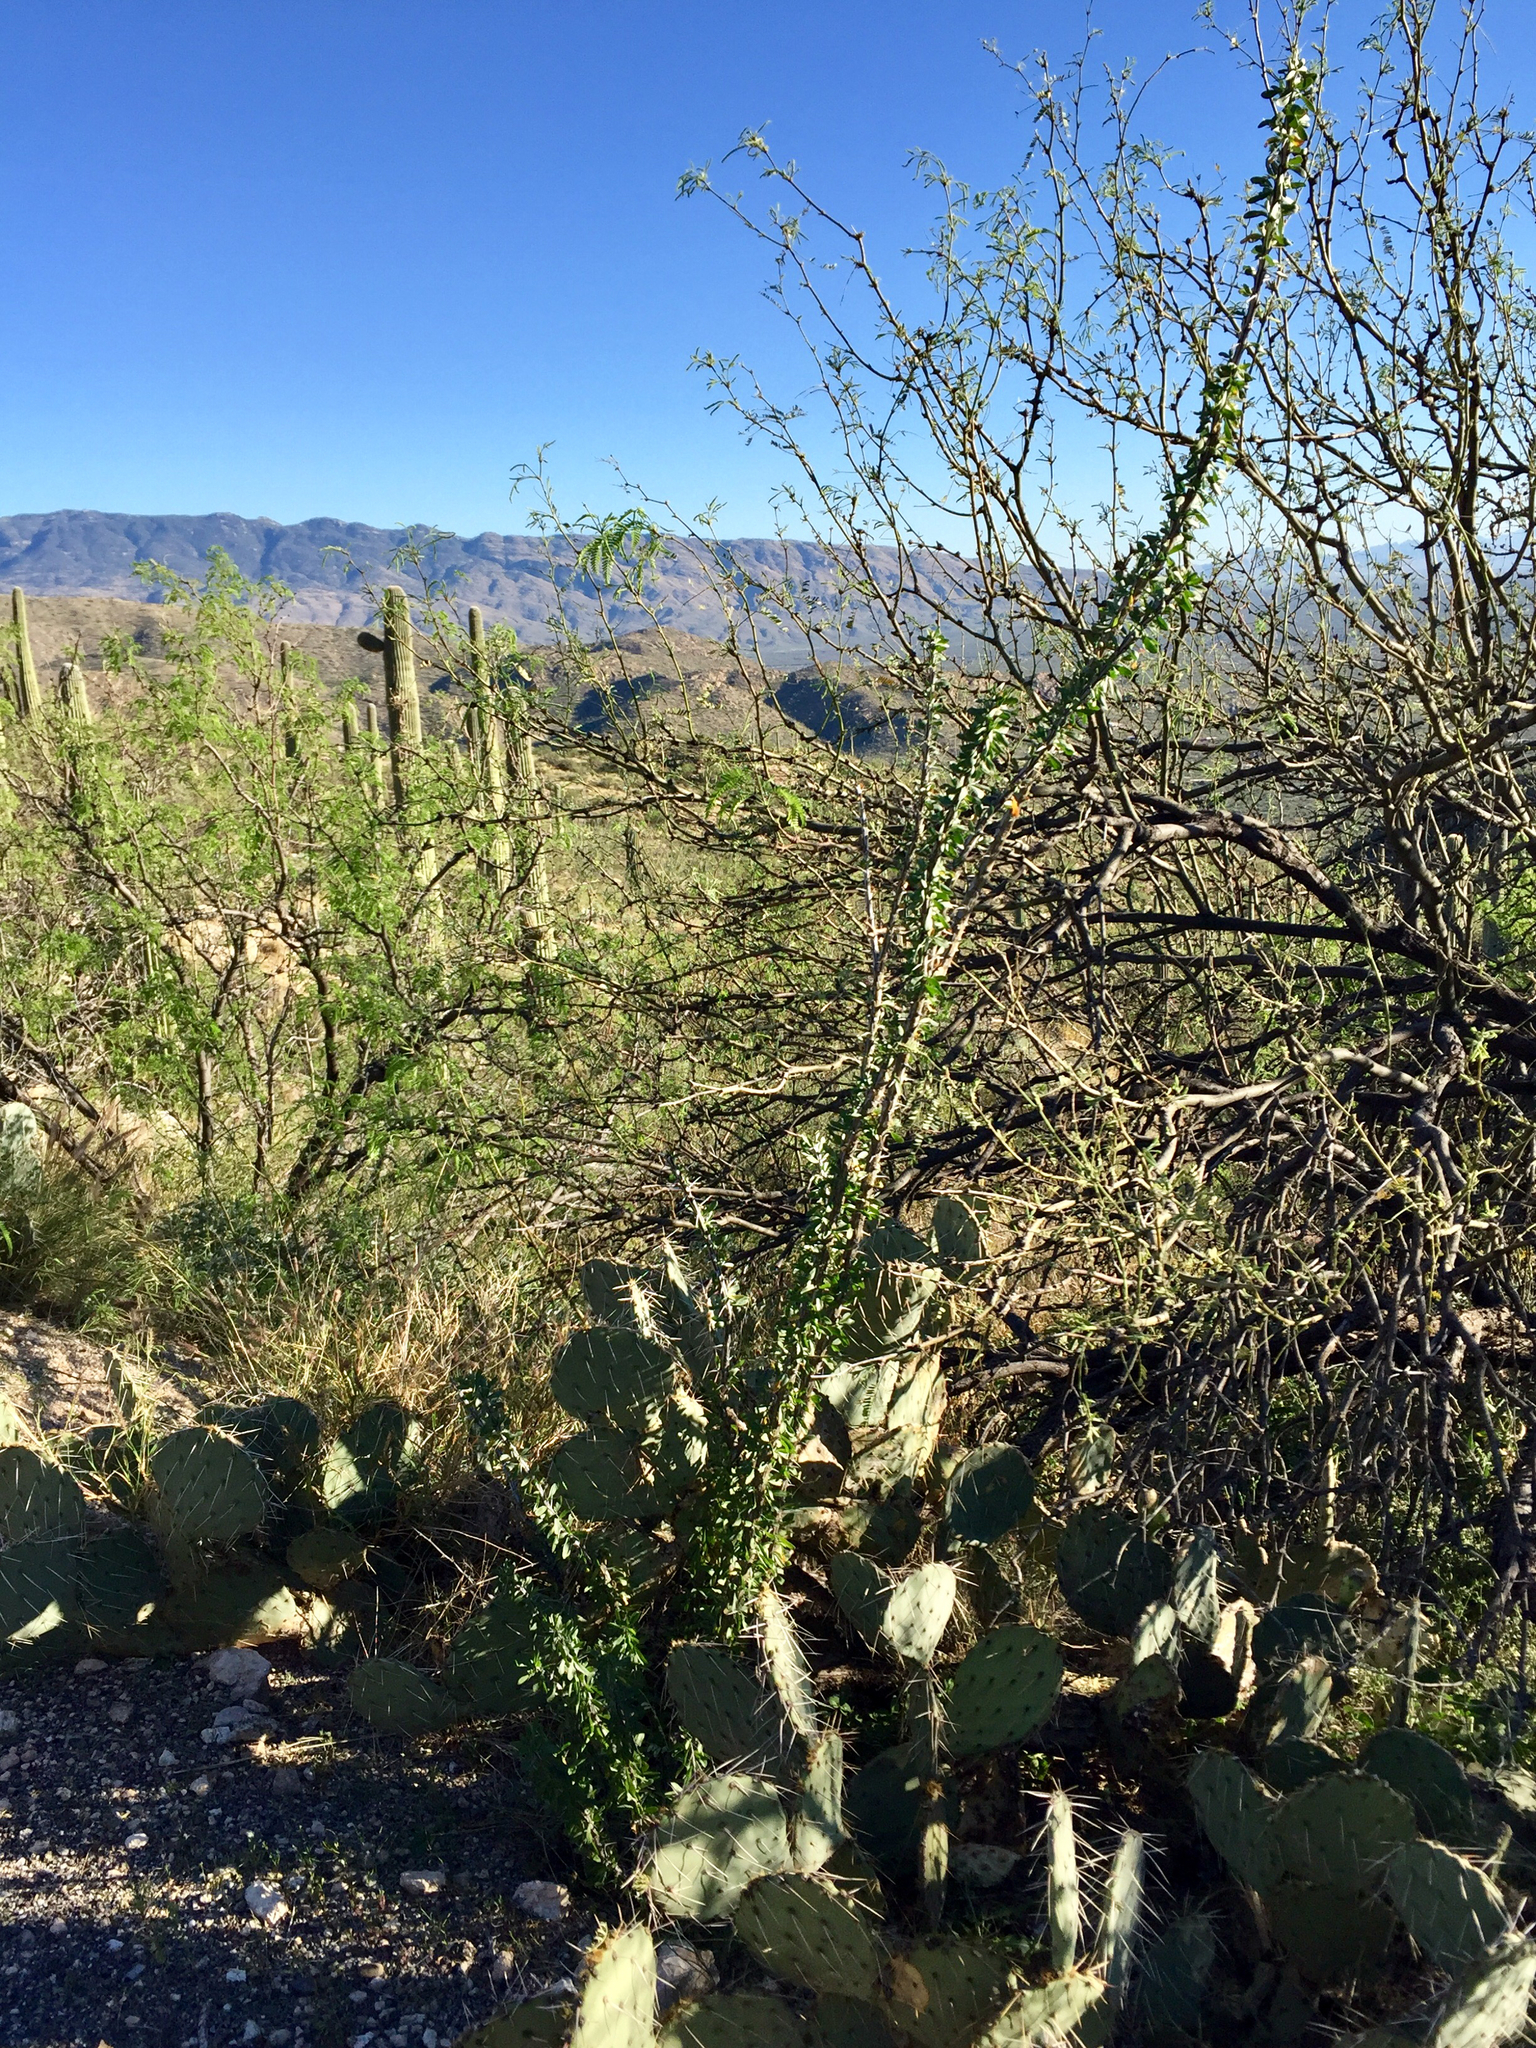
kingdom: Plantae
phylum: Tracheophyta
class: Magnoliopsida
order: Ericales
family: Fouquieriaceae
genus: Fouquieria
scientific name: Fouquieria splendens
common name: Vine-cactus
